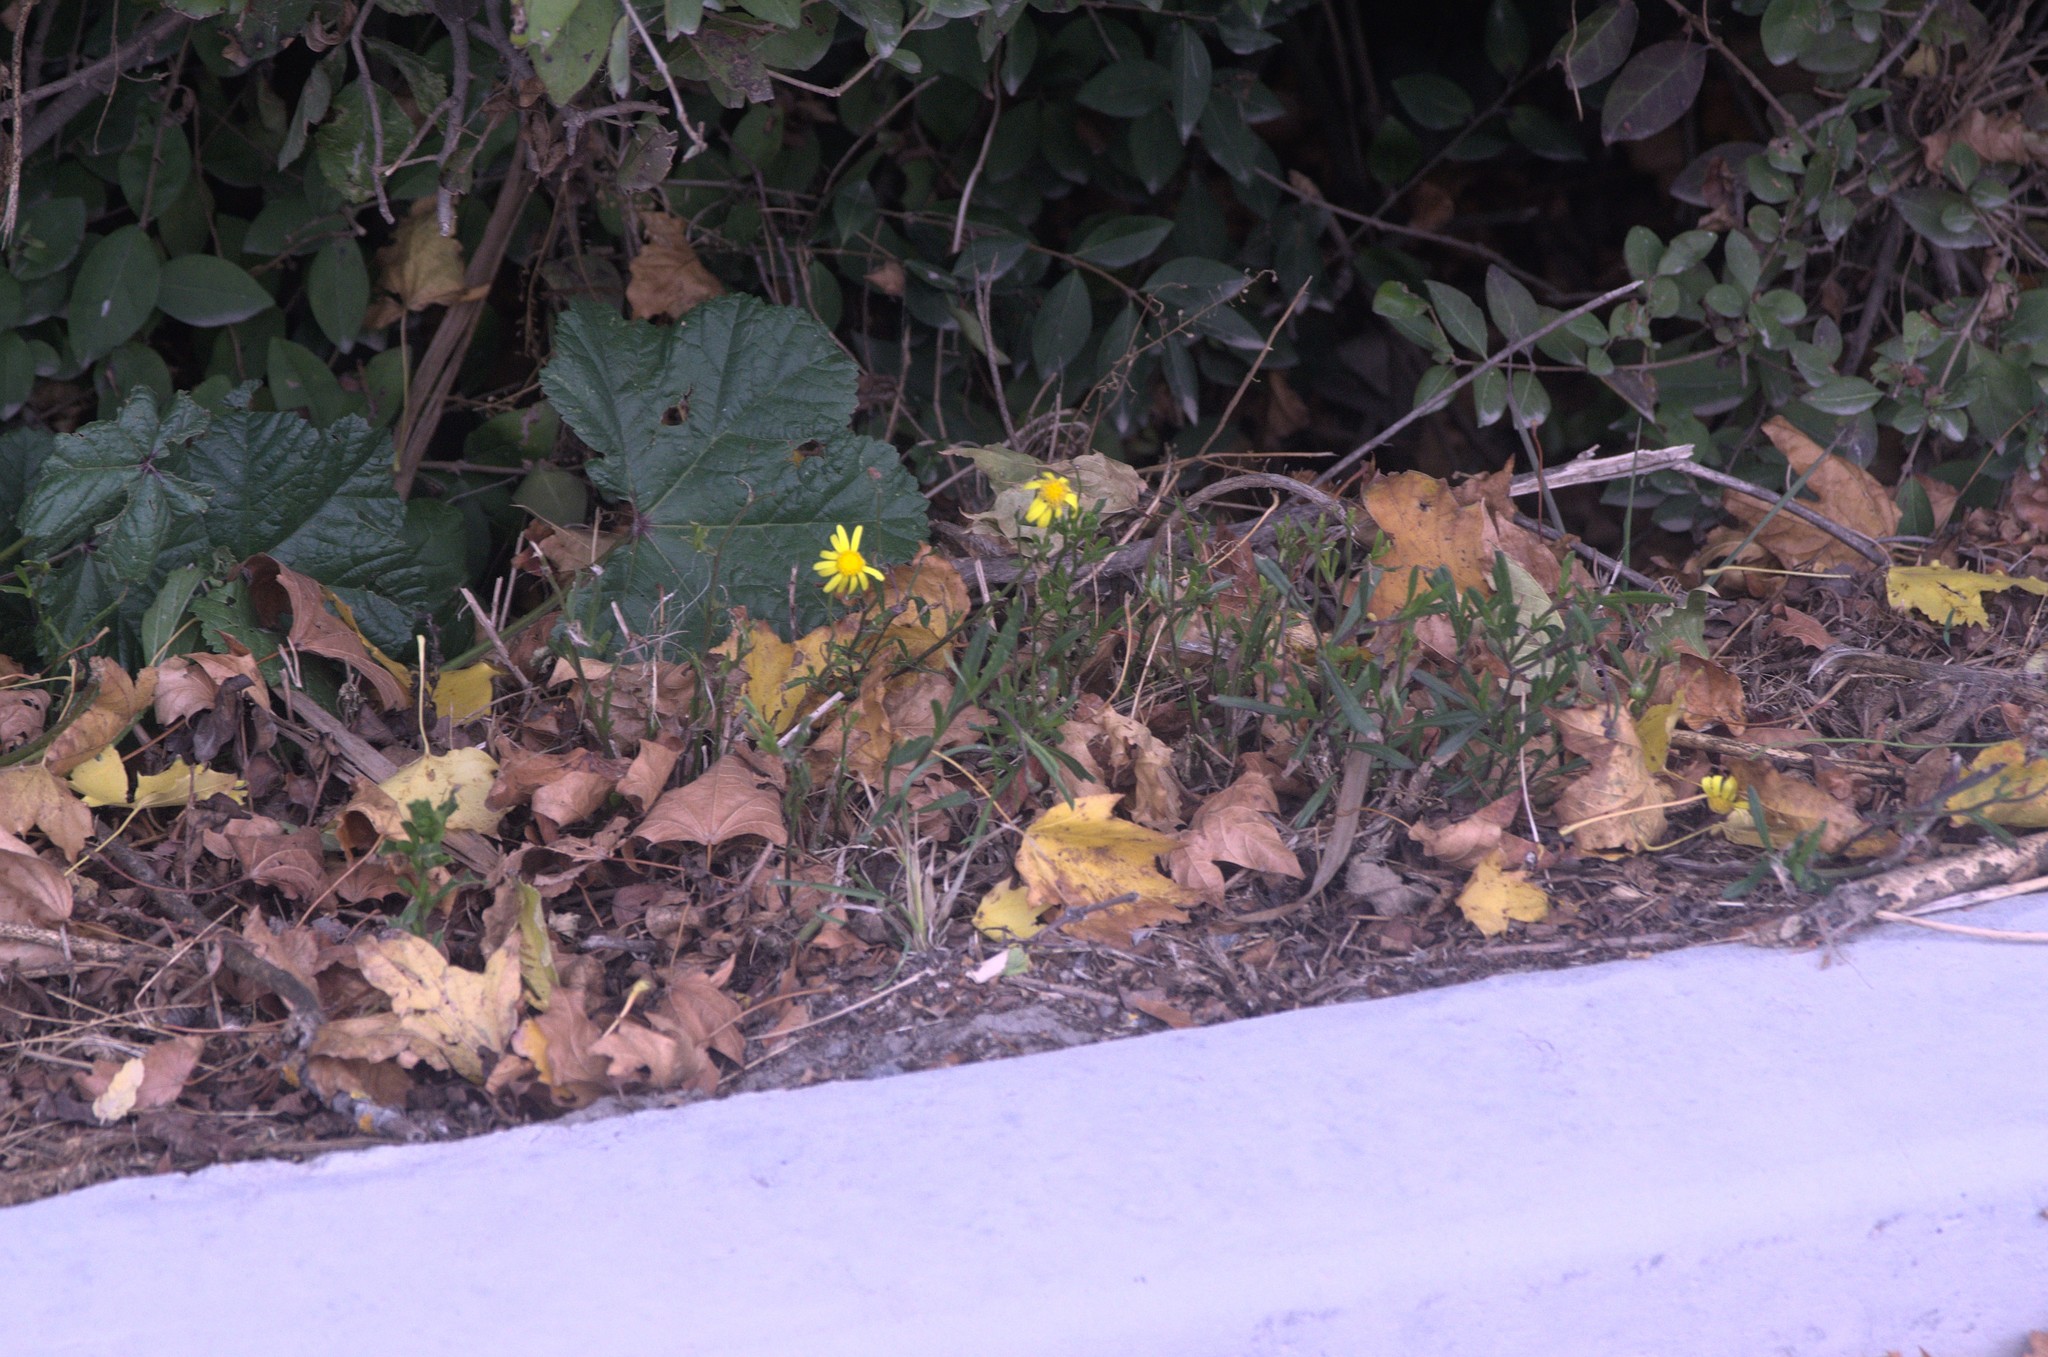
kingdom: Plantae
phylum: Tracheophyta
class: Magnoliopsida
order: Asterales
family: Asteraceae
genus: Senecio
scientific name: Senecio skirrhodon
